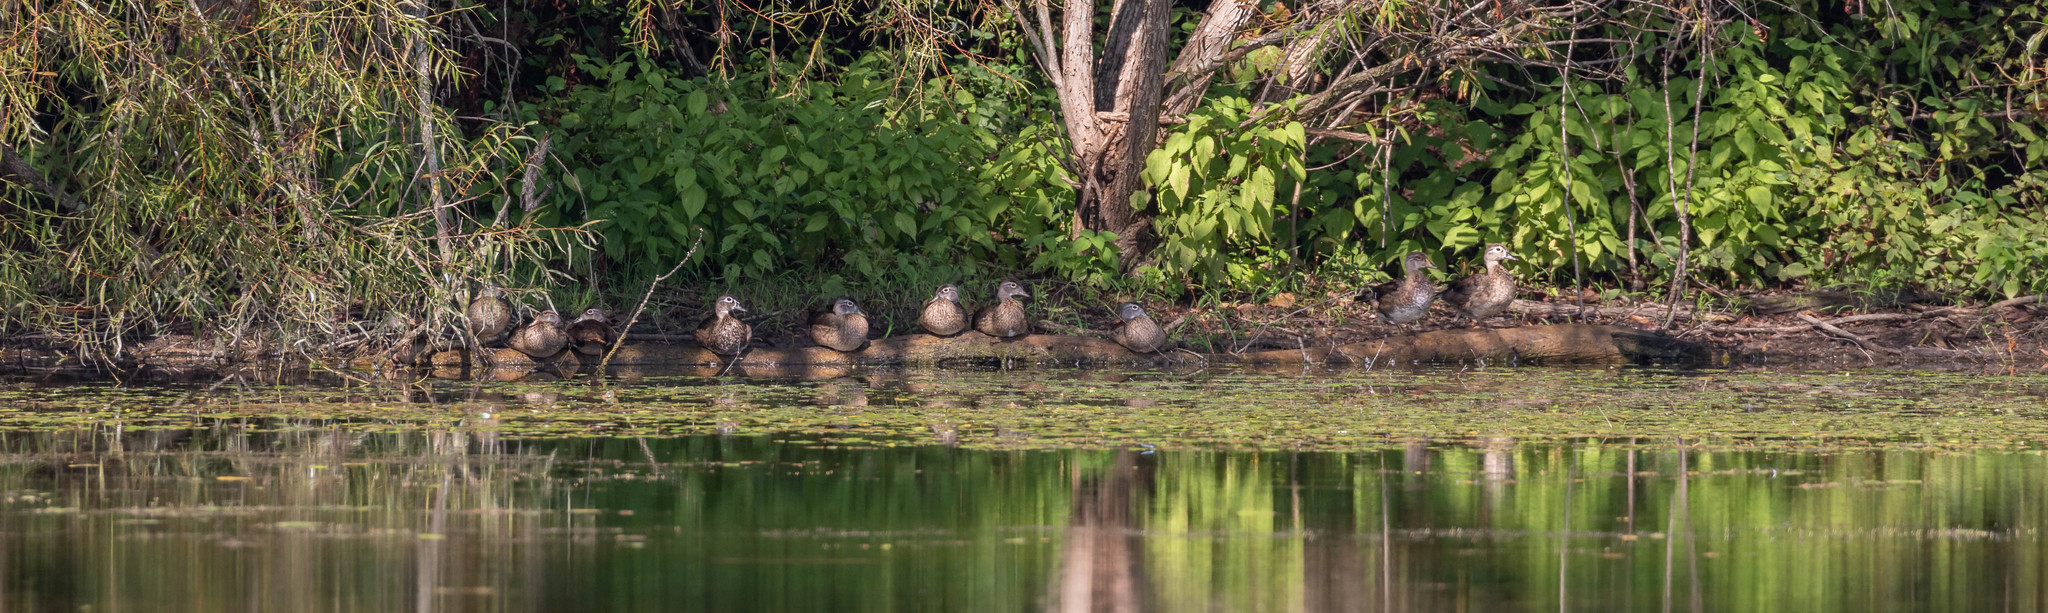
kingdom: Animalia
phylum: Chordata
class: Aves
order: Anseriformes
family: Anatidae
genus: Aix
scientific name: Aix sponsa
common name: Wood duck
